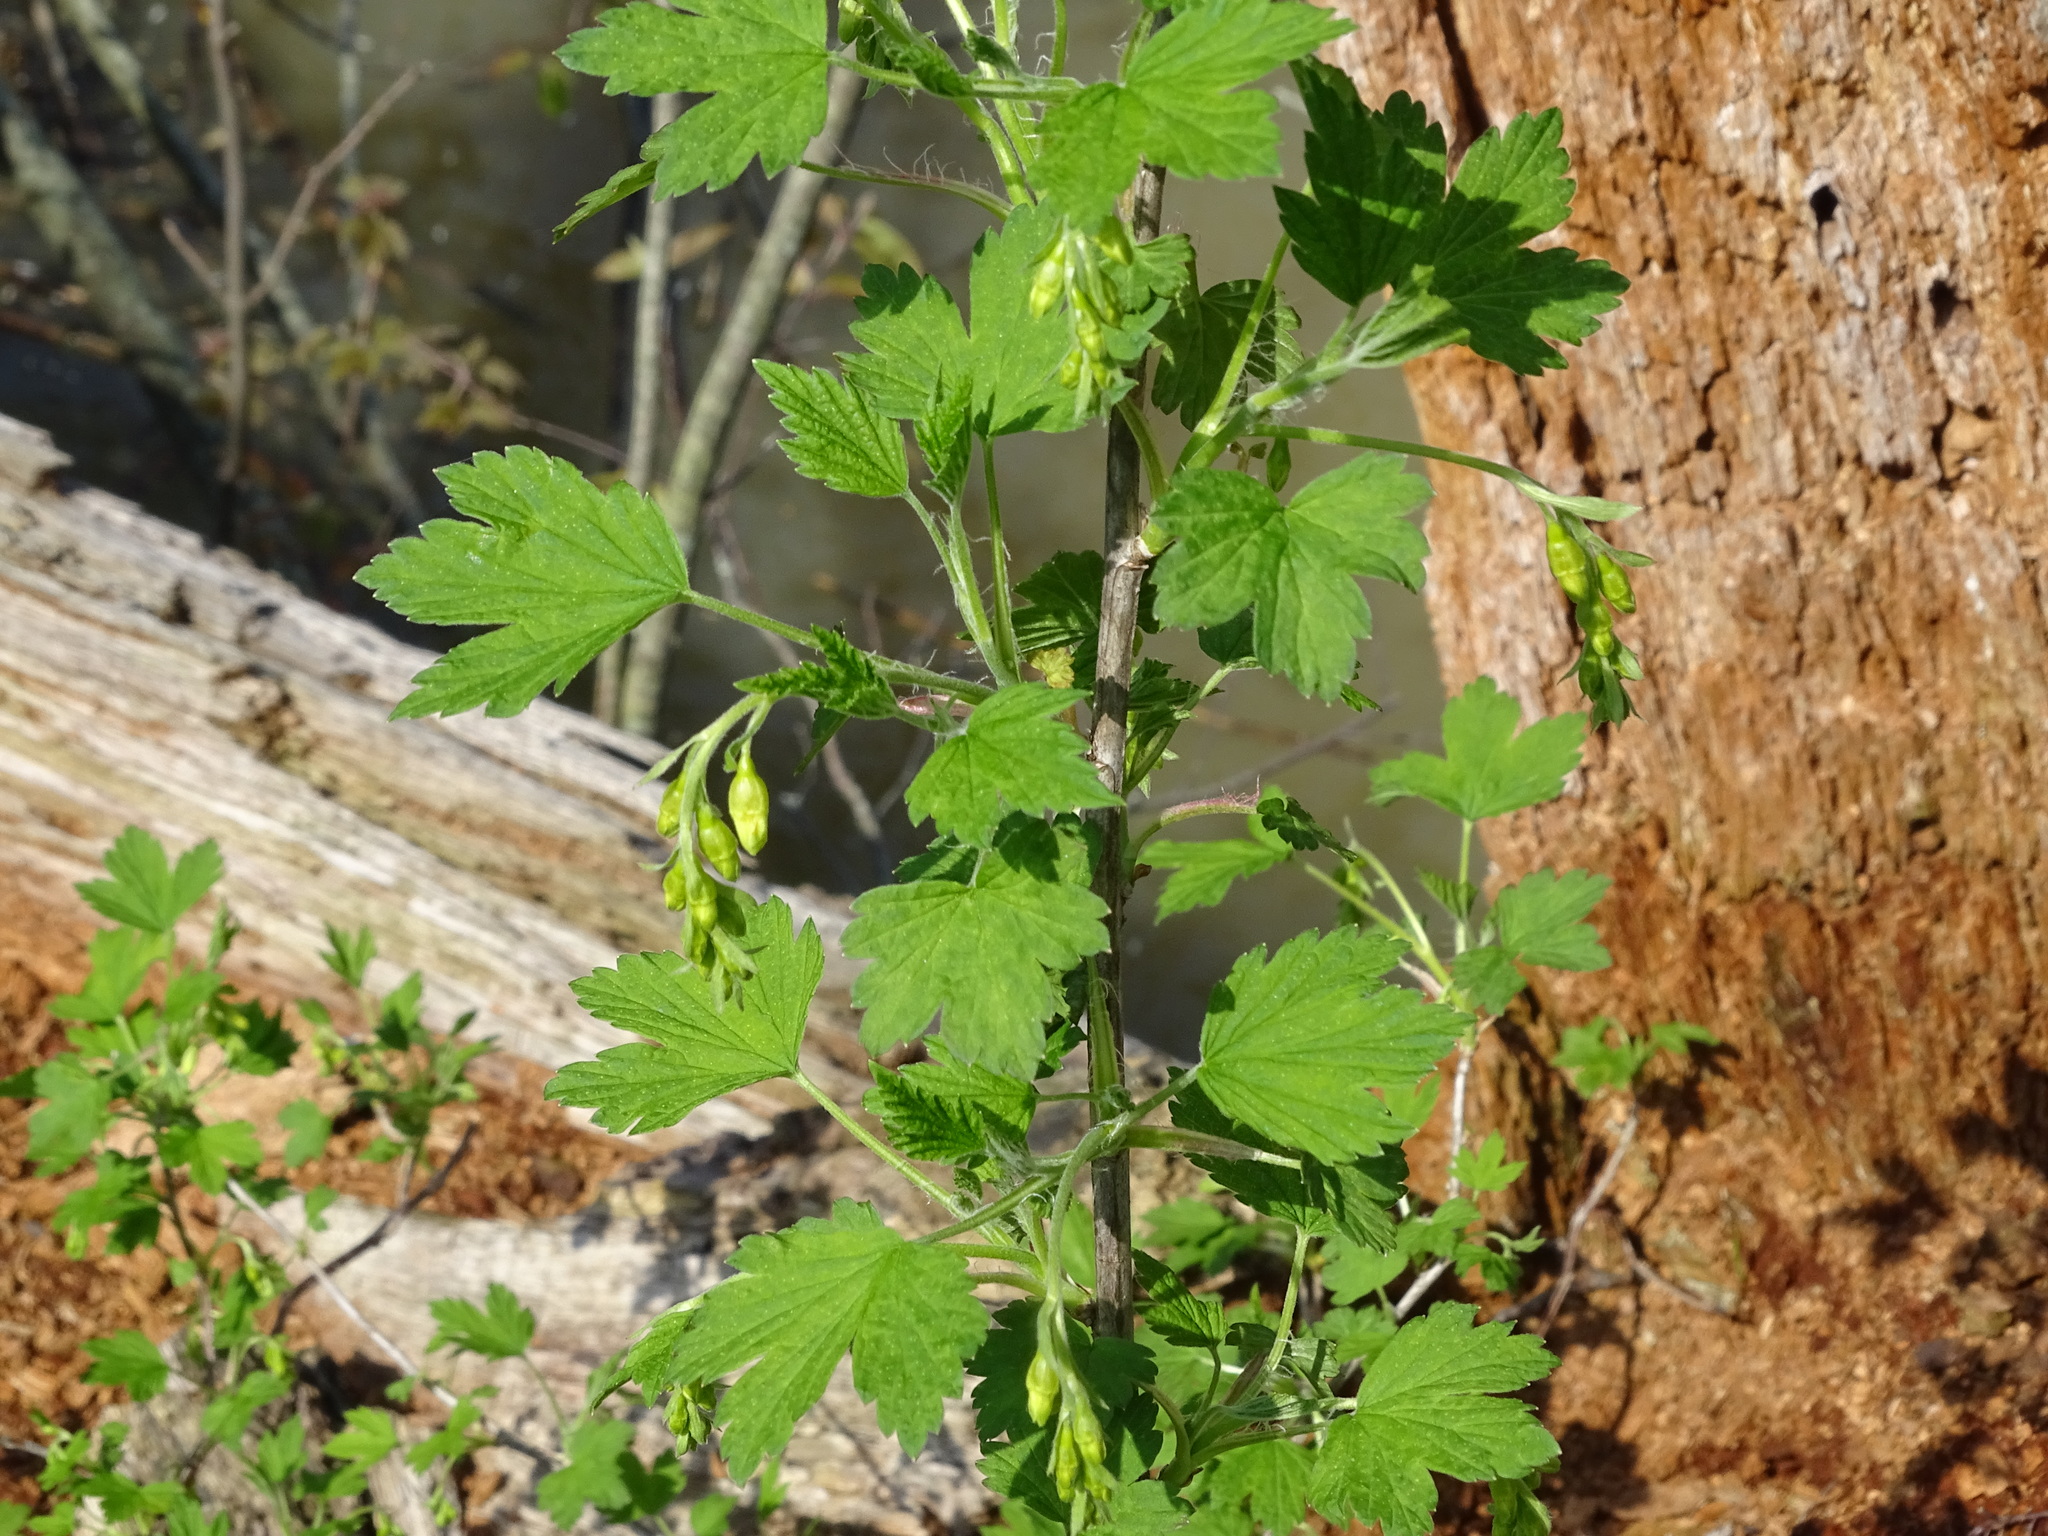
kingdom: Plantae
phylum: Tracheophyta
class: Magnoliopsida
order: Saxifragales
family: Grossulariaceae
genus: Ribes
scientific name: Ribes americanum
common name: American black currant
